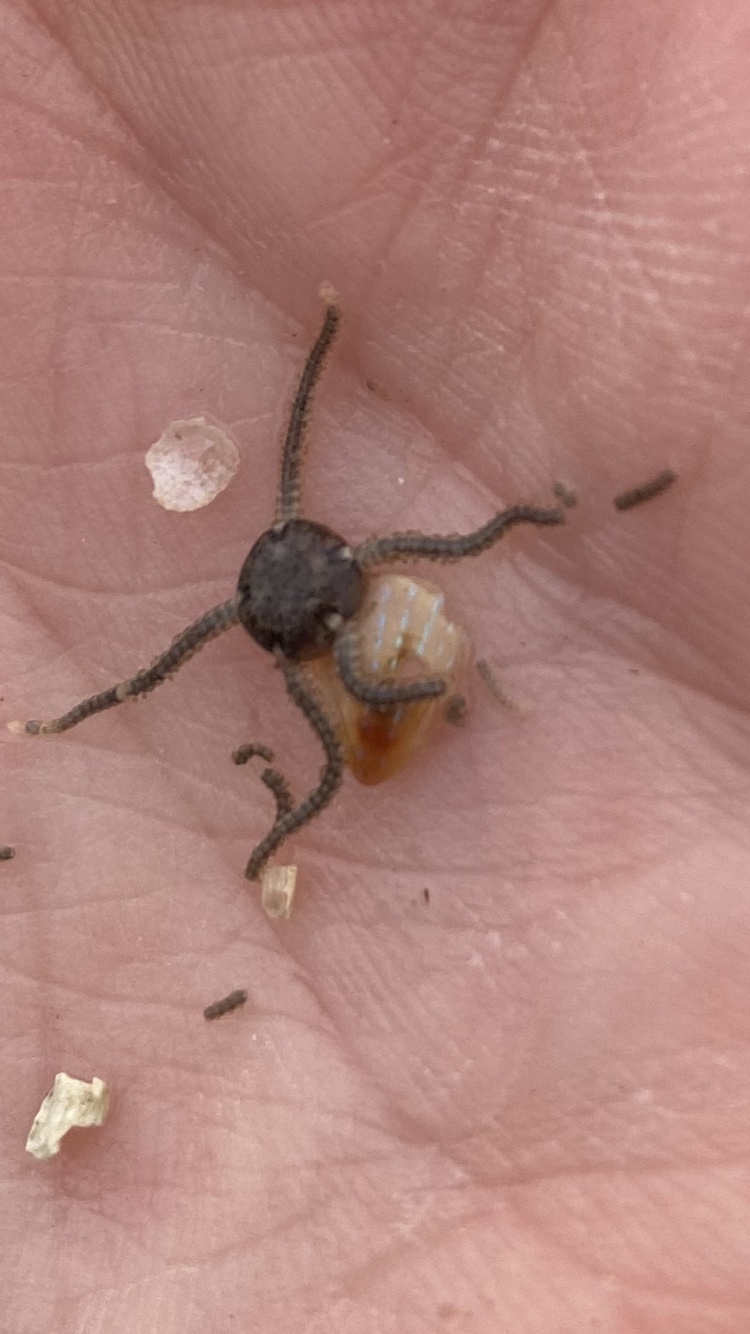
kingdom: Animalia
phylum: Mollusca
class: Gastropoda
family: Patellidae
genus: Patella
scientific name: Patella pellucida
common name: Blue-rayed limpet
